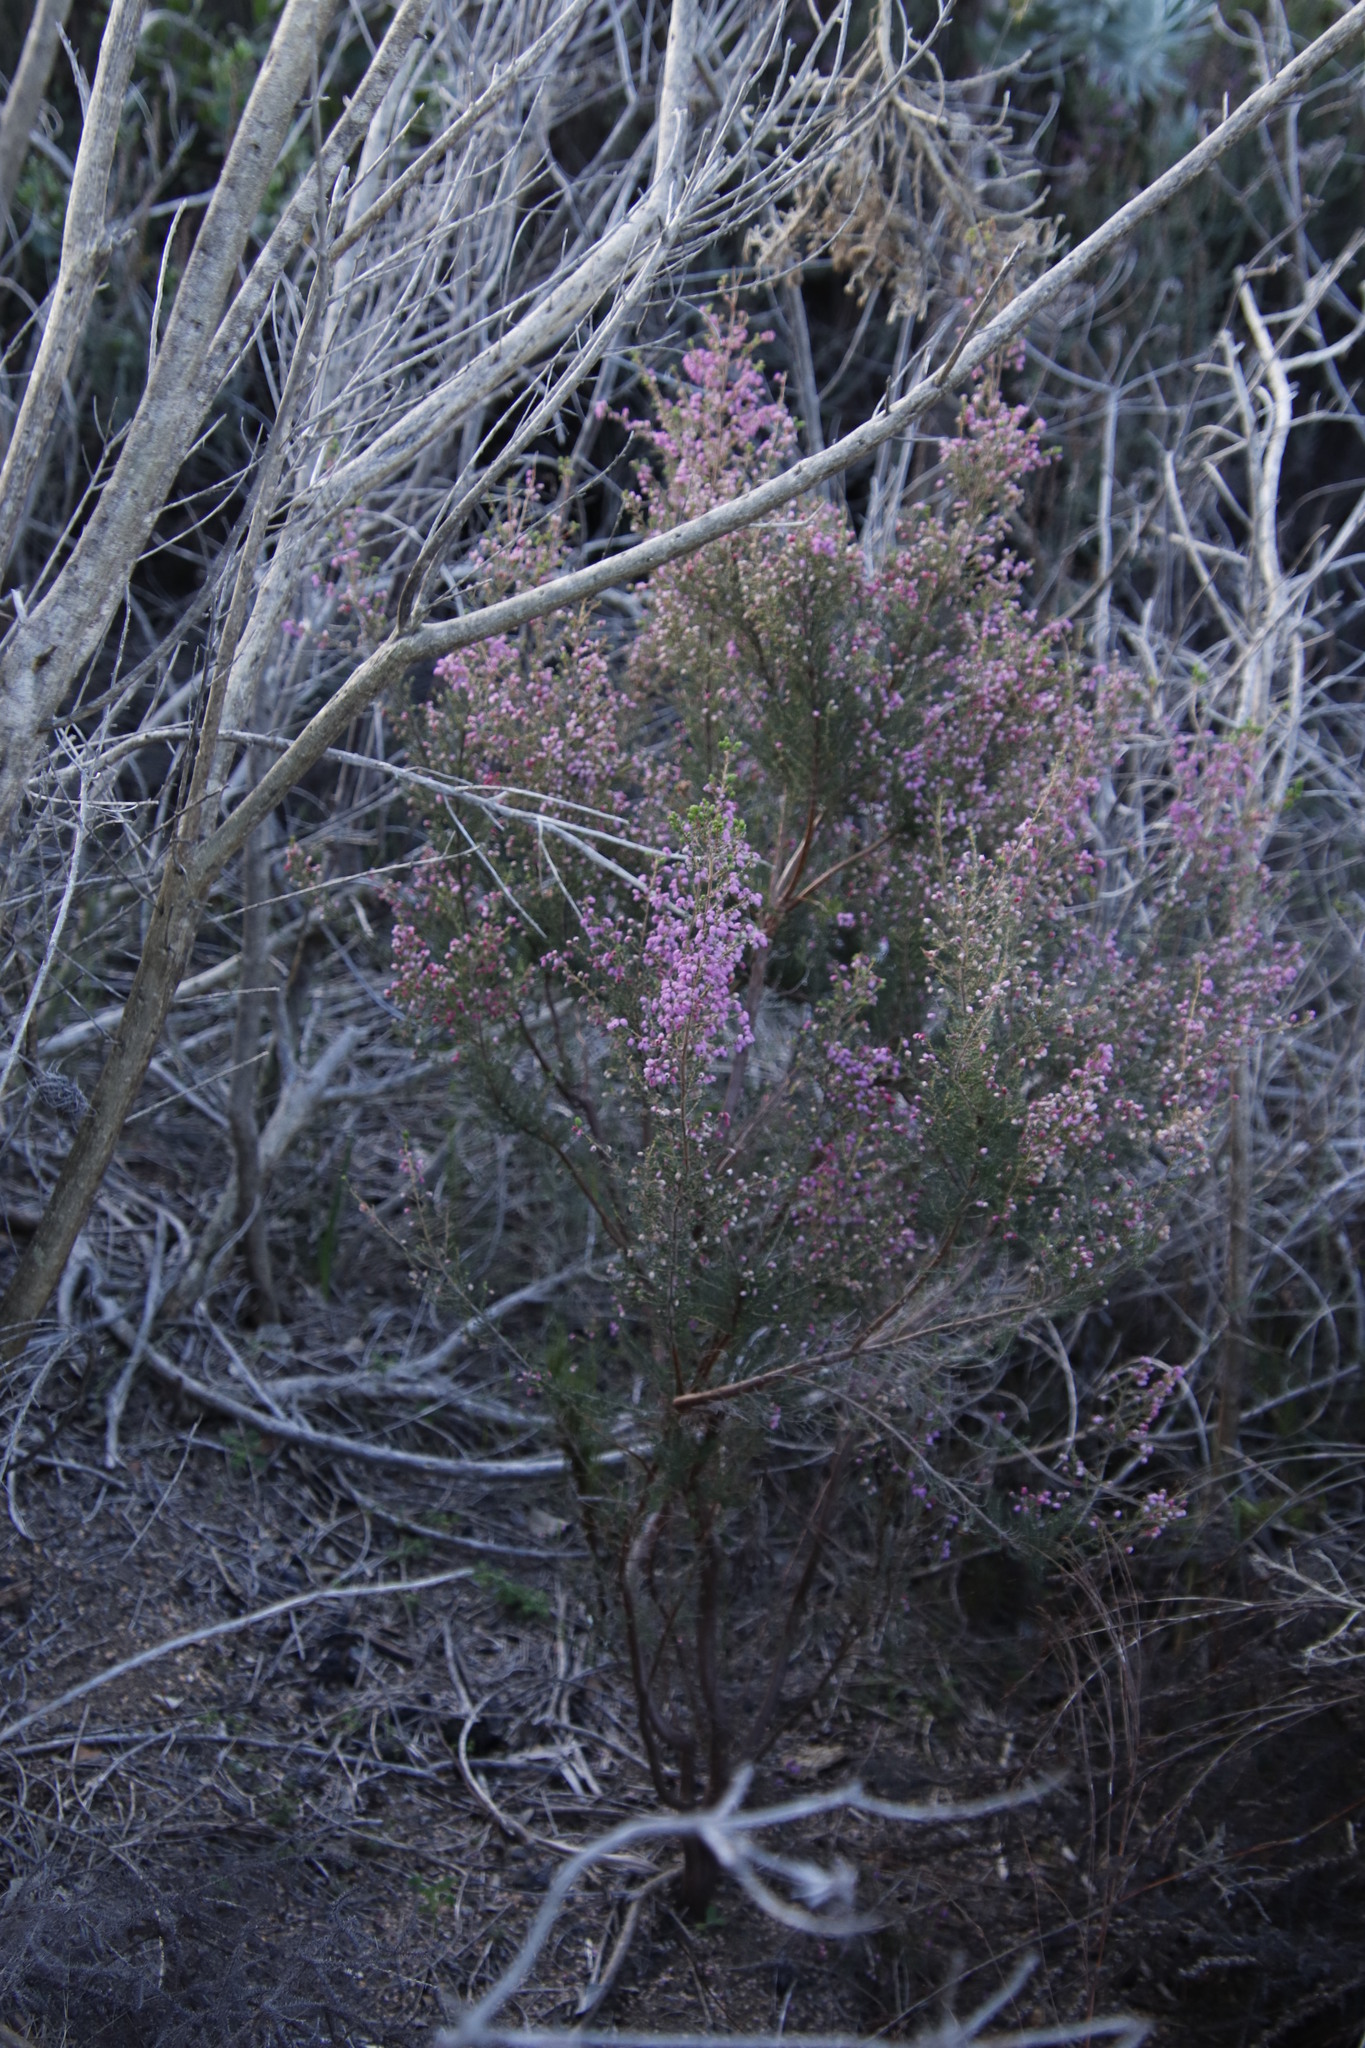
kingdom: Plantae
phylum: Tracheophyta
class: Magnoliopsida
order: Ericales
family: Ericaceae
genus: Erica
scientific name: Erica hirtiflora
